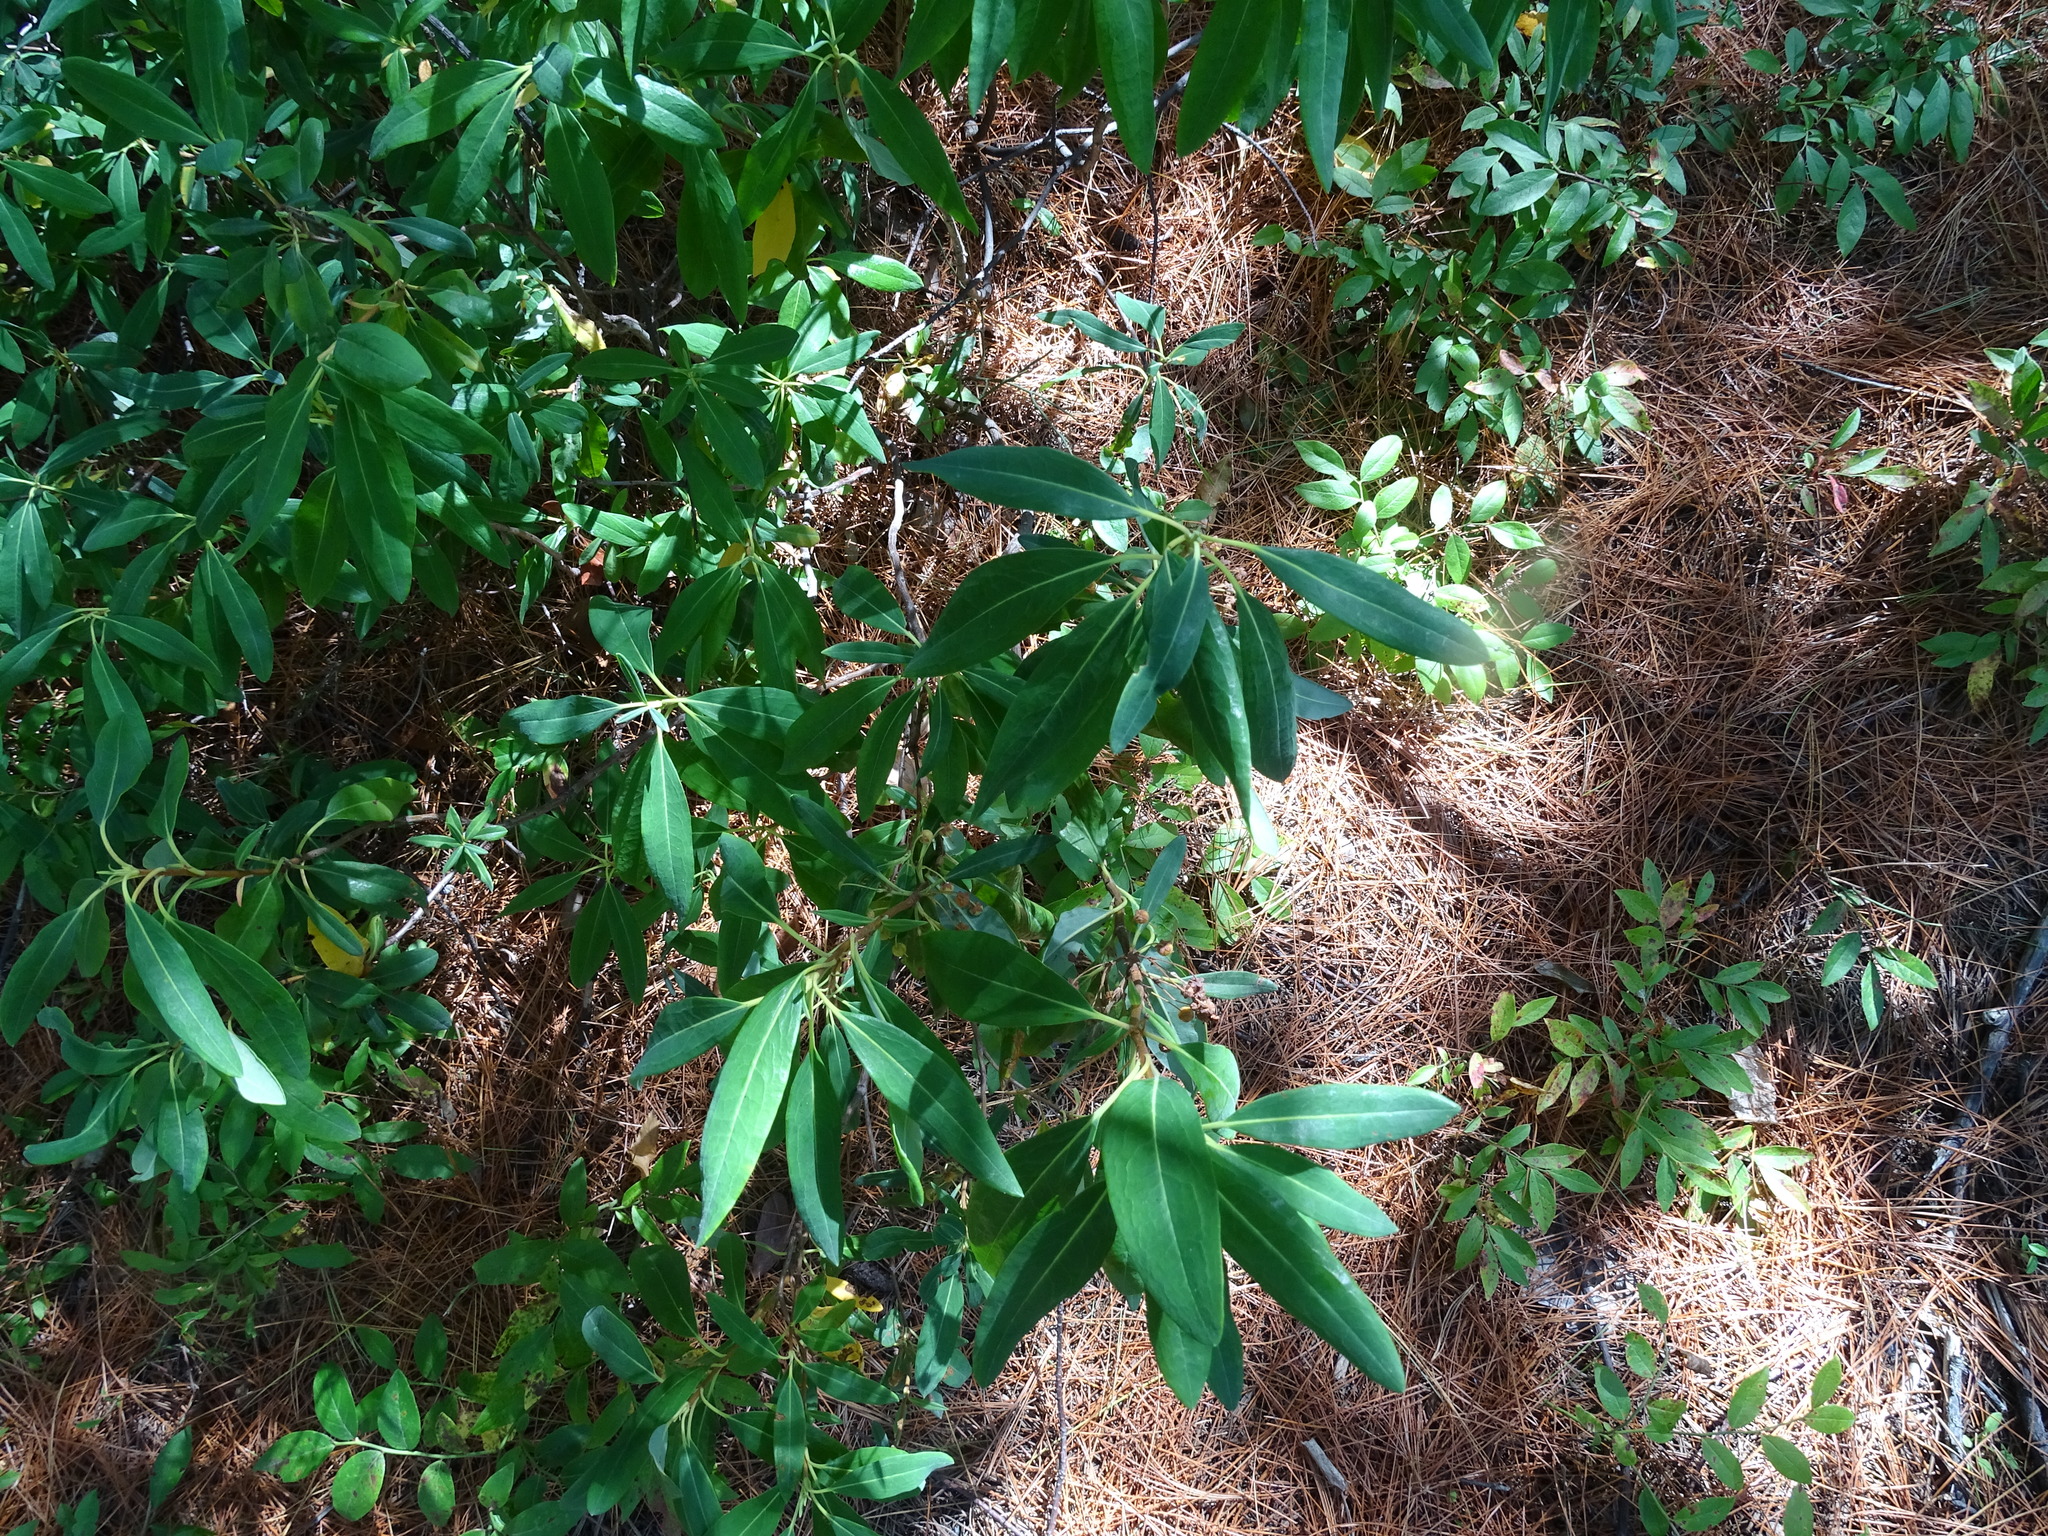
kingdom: Plantae
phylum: Tracheophyta
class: Magnoliopsida
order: Ericales
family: Ericaceae
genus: Kalmia
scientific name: Kalmia angustifolia
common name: Sheep-laurel
